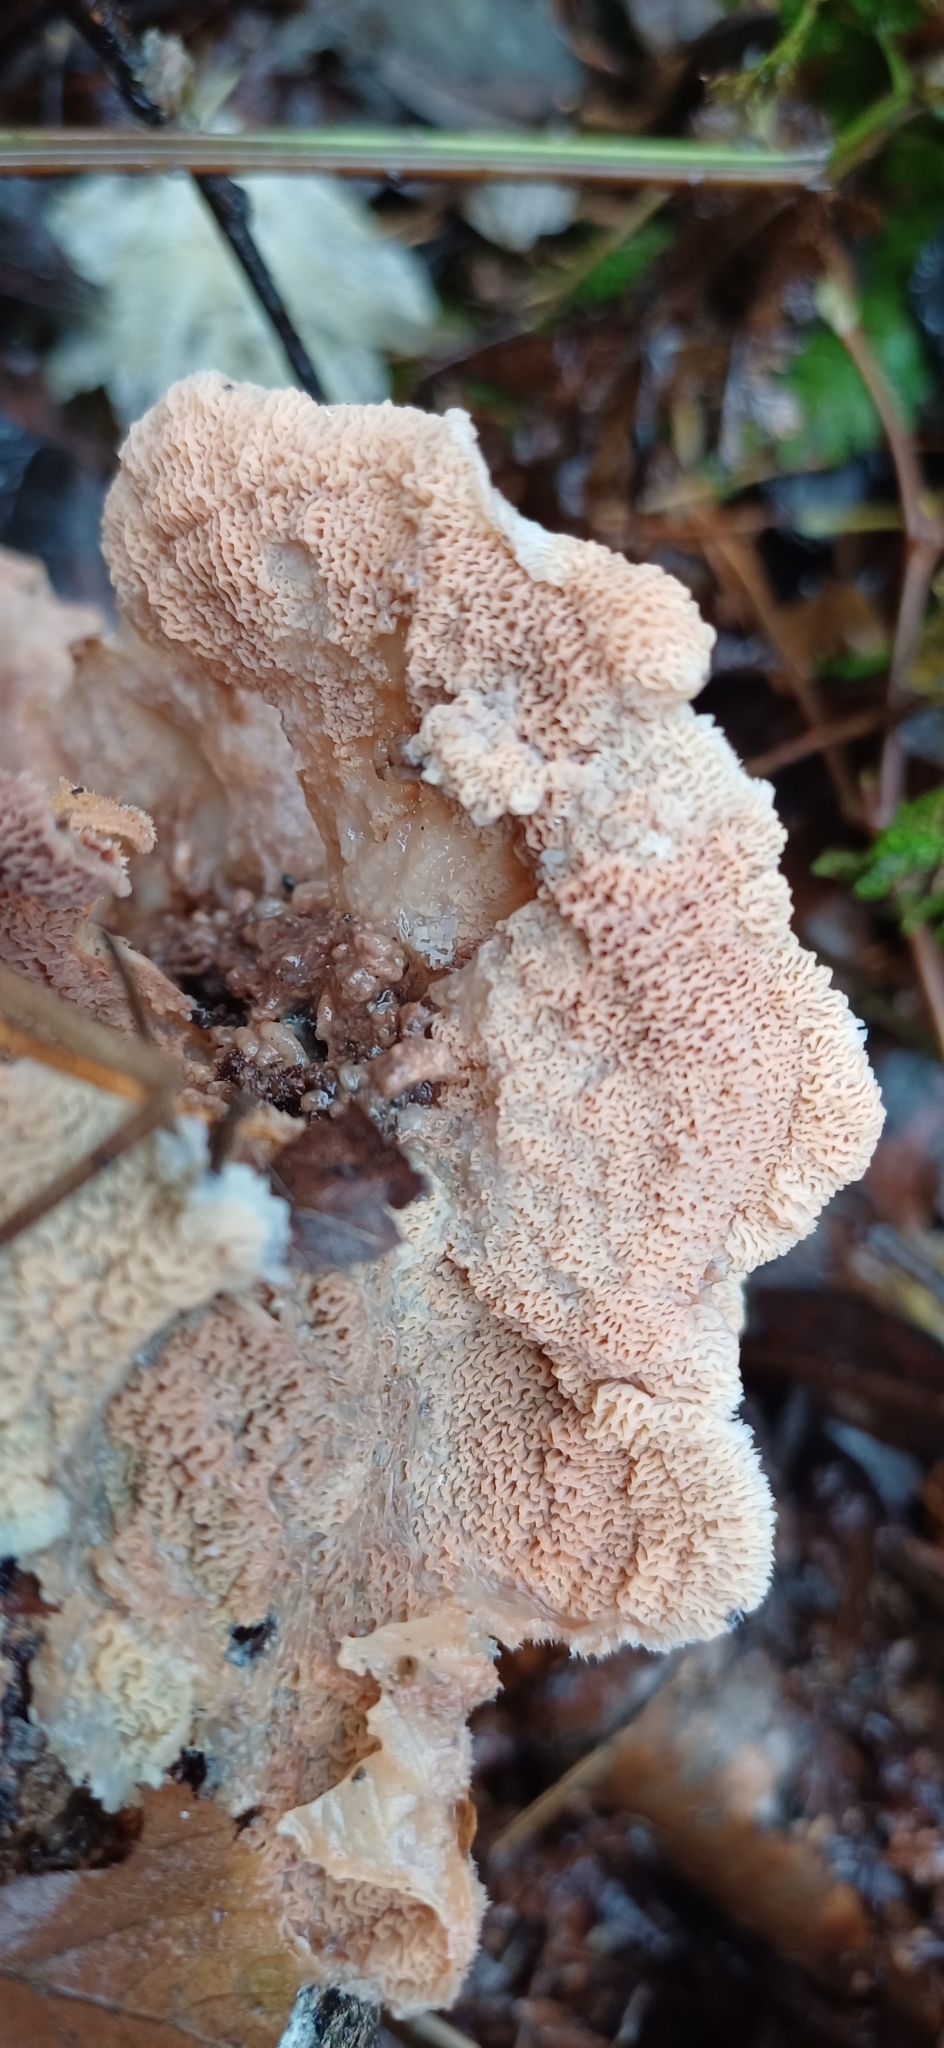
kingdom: Fungi
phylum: Basidiomycota
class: Agaricomycetes
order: Polyporales
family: Meruliaceae
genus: Phlebia
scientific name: Phlebia tremellosa
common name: Jelly rot
